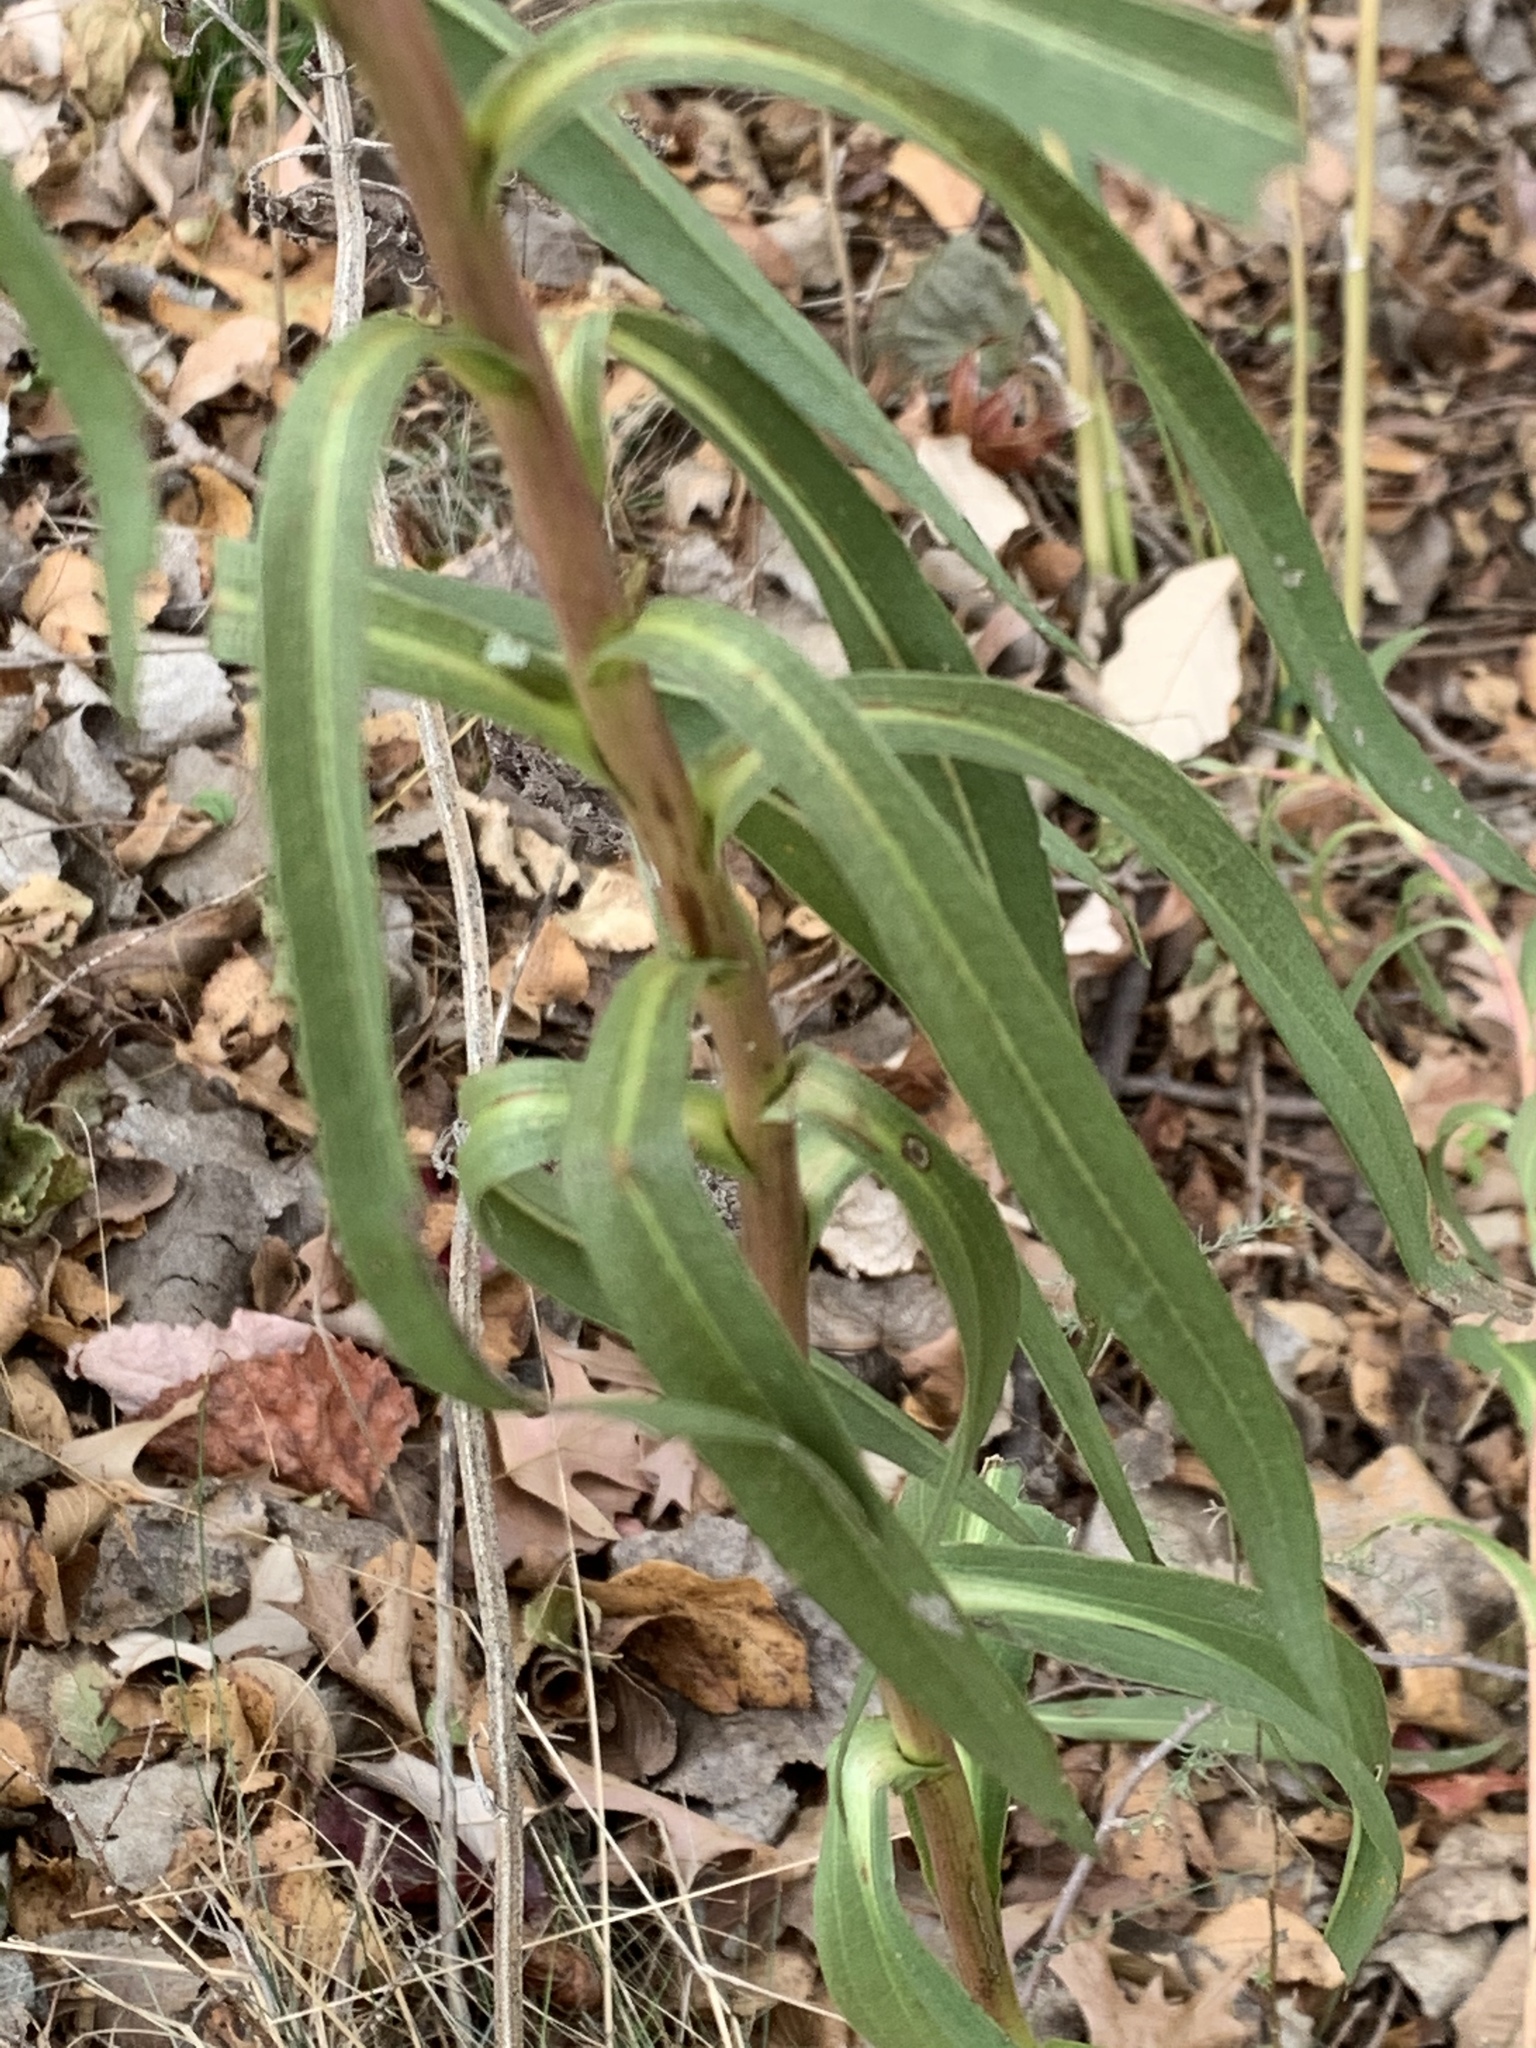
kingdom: Plantae
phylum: Tracheophyta
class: Magnoliopsida
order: Asterales
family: Asteraceae
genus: Solidago
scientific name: Solidago sempervirens
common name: Salt-marsh goldenrod
